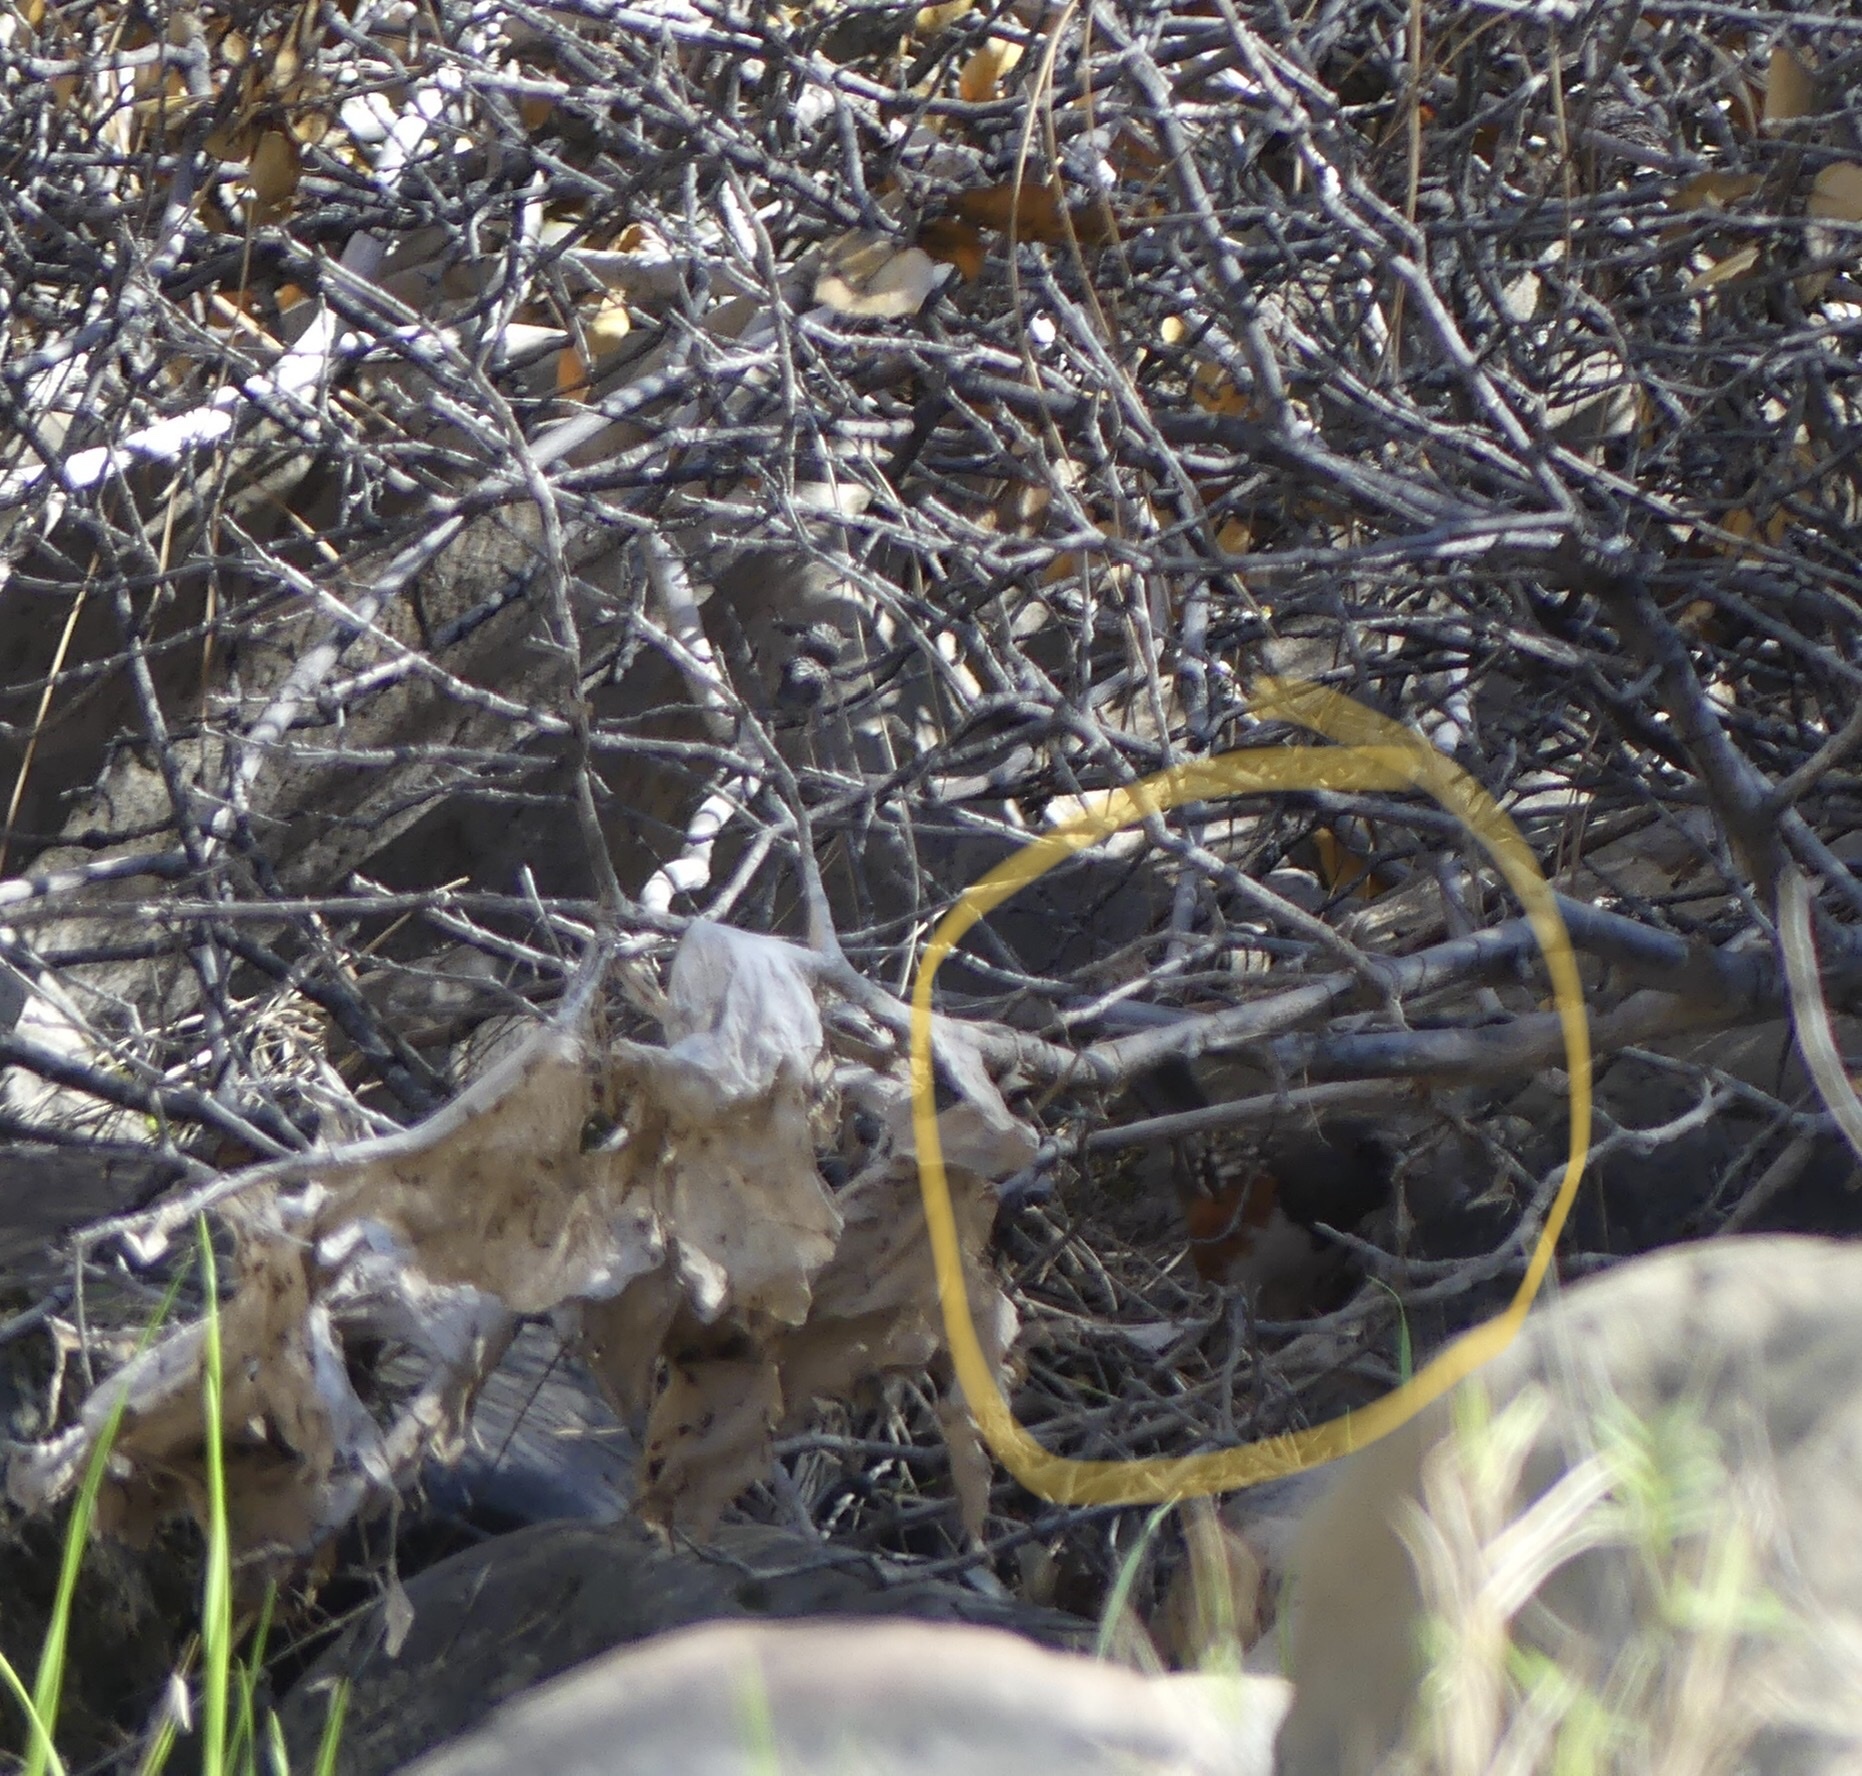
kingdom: Animalia
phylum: Chordata
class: Aves
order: Passeriformes
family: Passerellidae
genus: Pipilo
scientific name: Pipilo maculatus
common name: Spotted towhee
